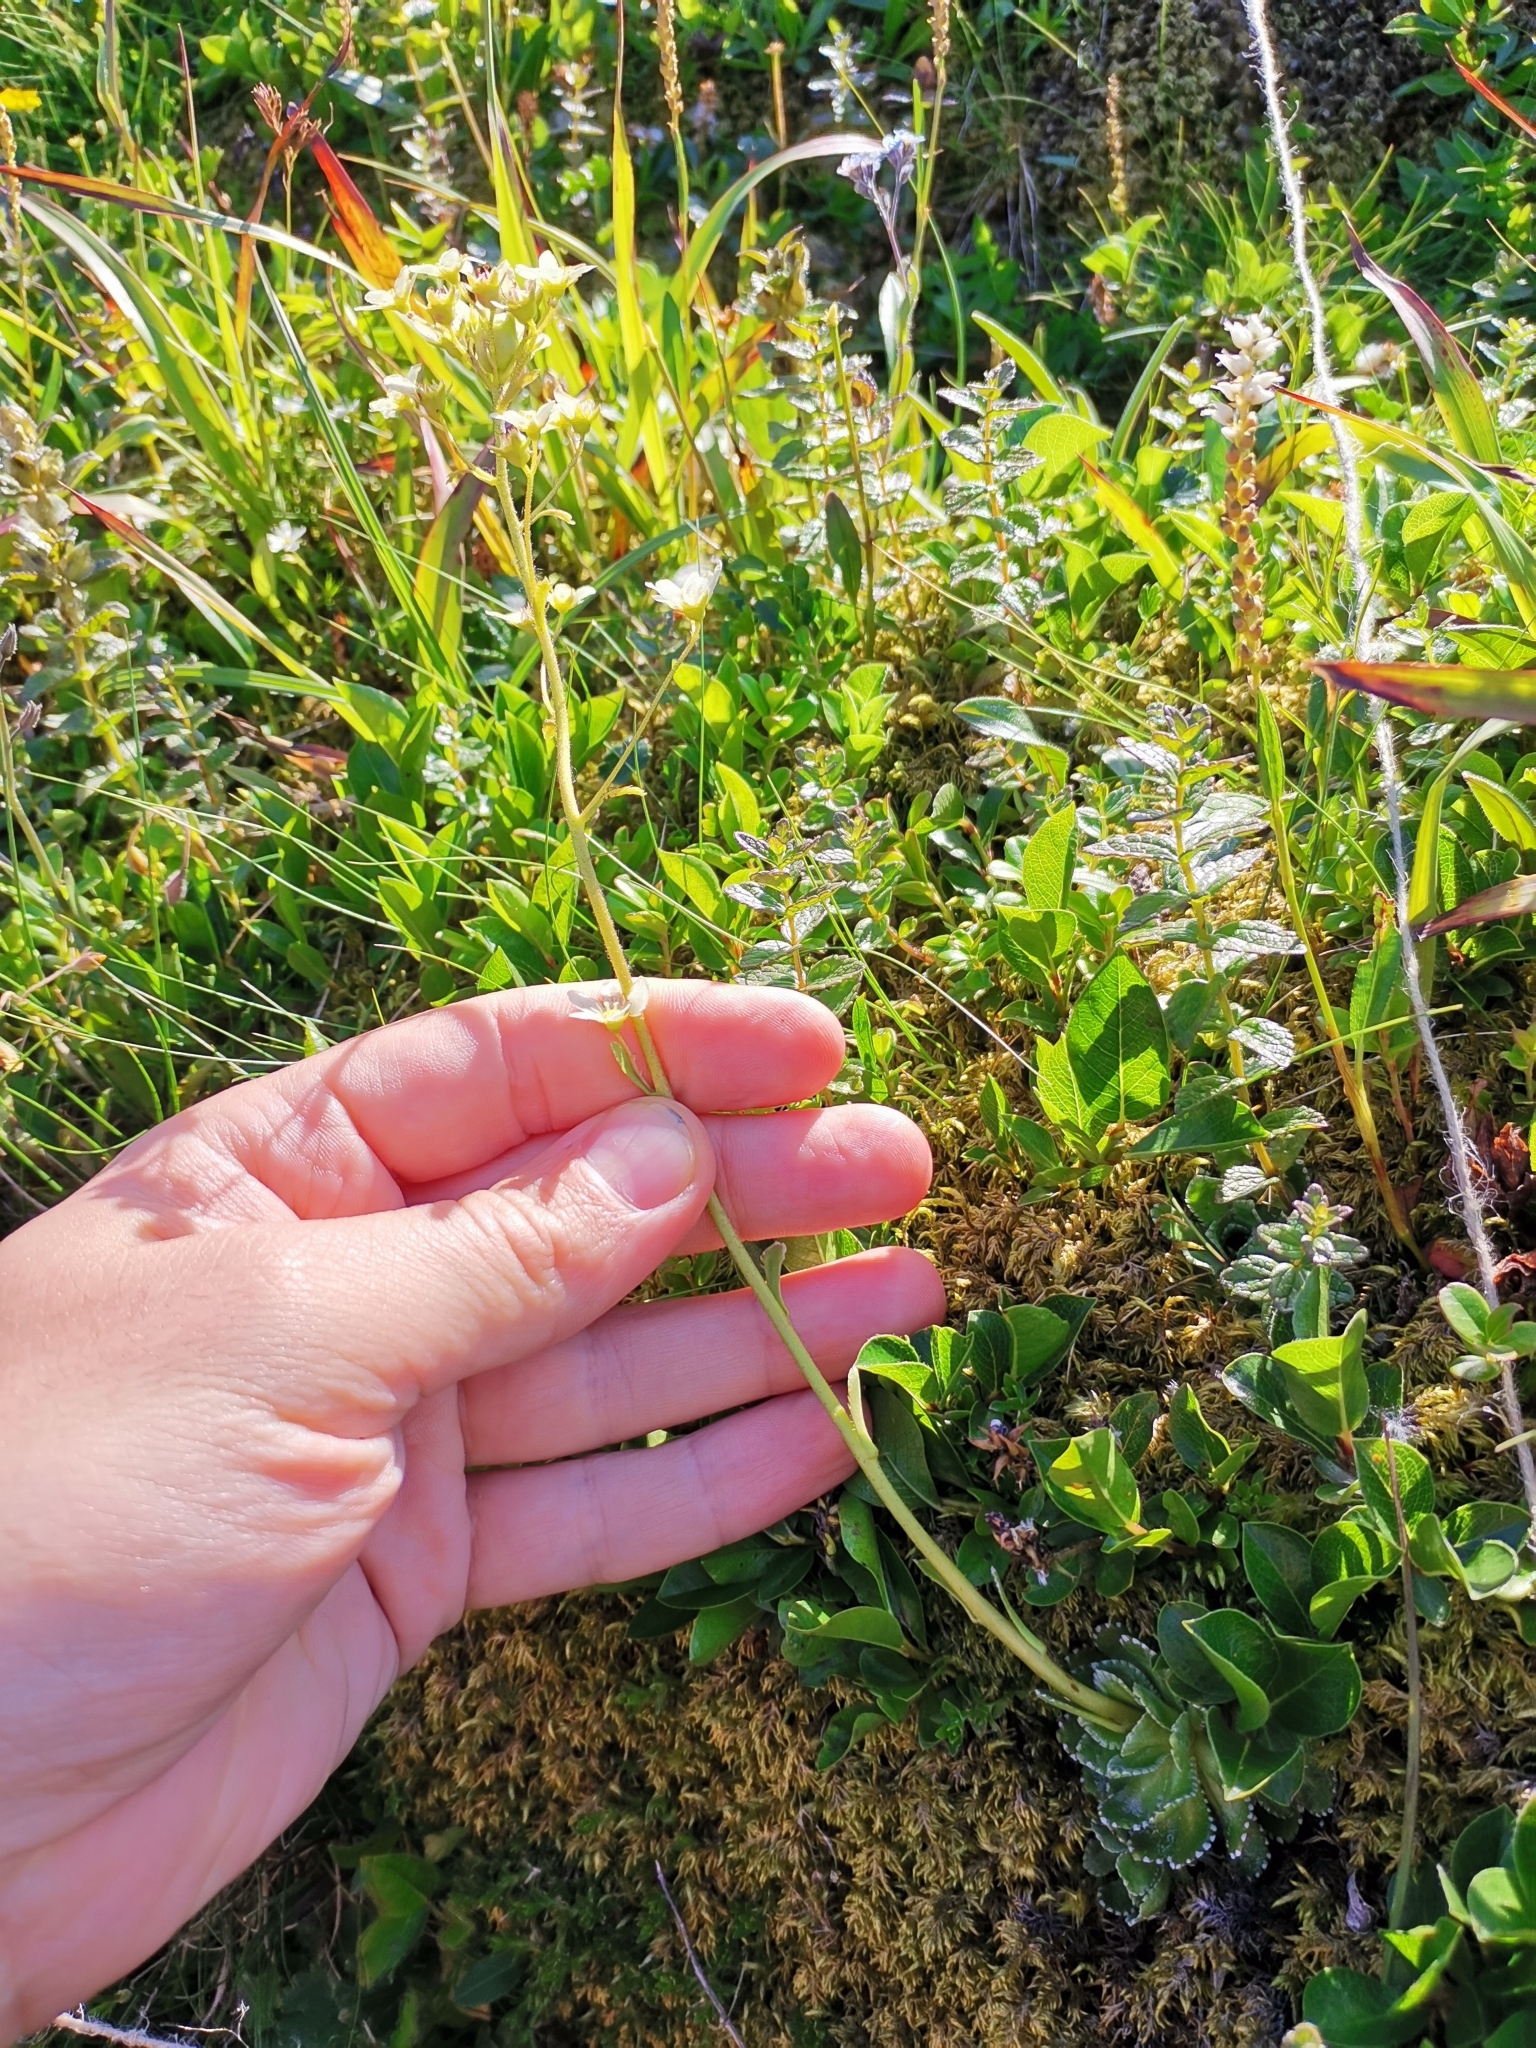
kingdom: Plantae
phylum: Tracheophyta
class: Magnoliopsida
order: Saxifragales
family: Saxifragaceae
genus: Saxifraga
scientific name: Saxifraga paniculata
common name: Livelong saxifrage
